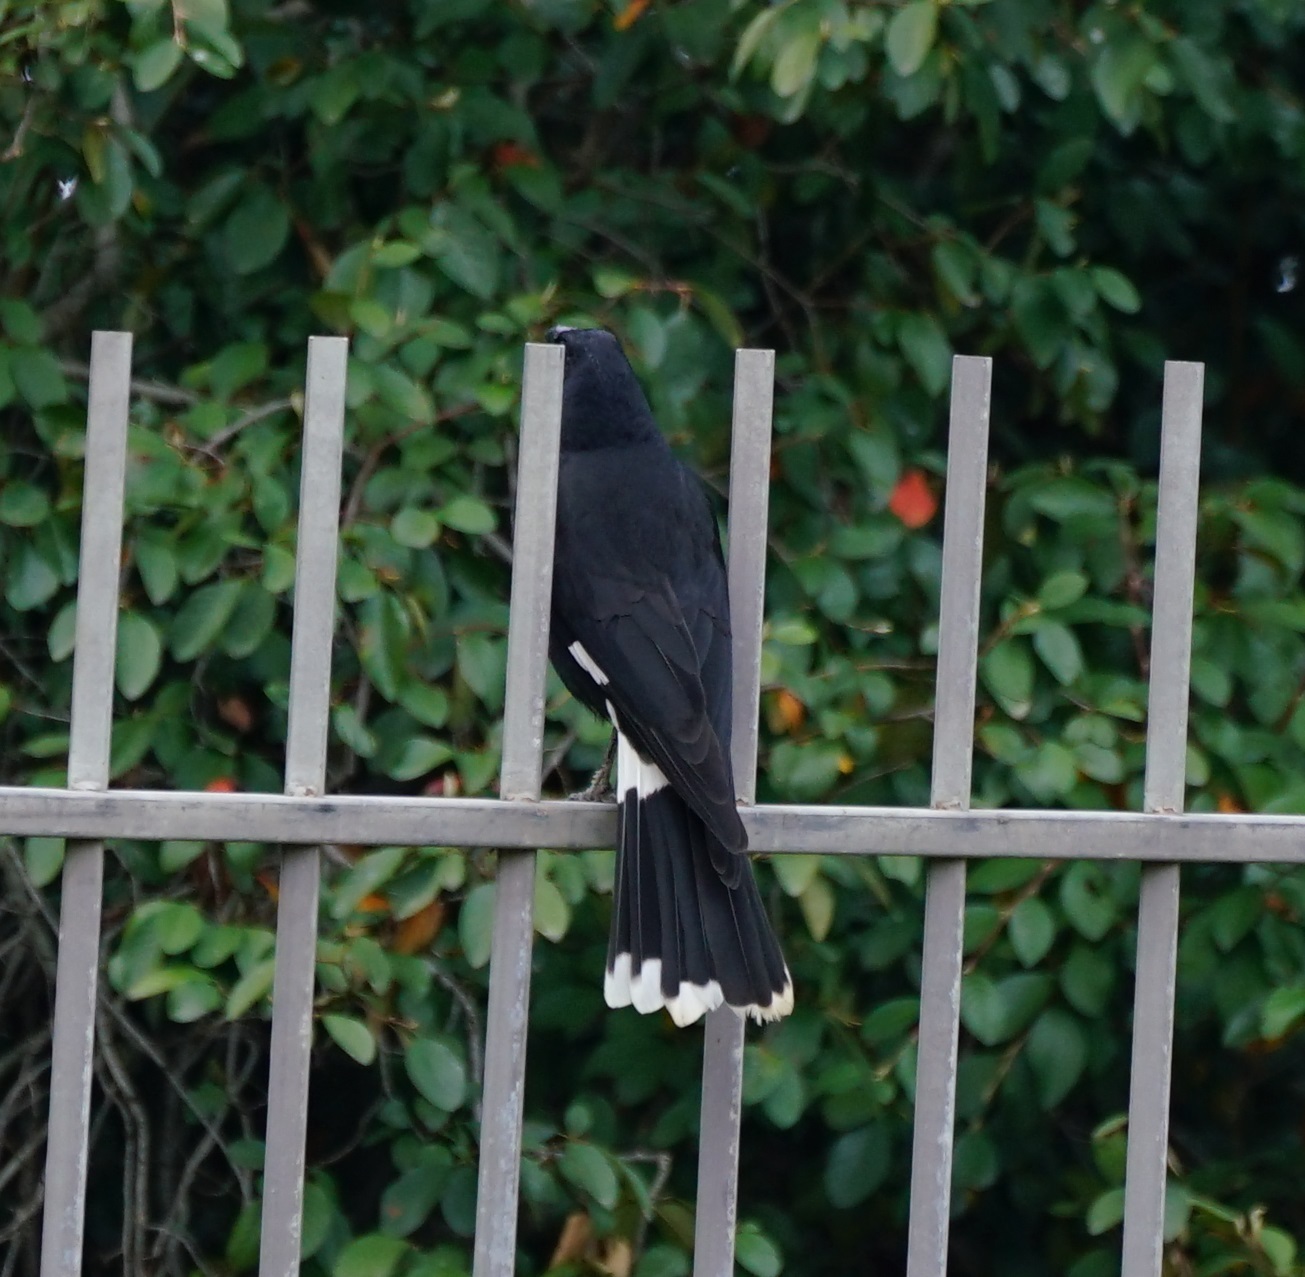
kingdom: Animalia
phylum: Chordata
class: Aves
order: Passeriformes
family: Cracticidae
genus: Strepera
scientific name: Strepera graculina
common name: Pied currawong
